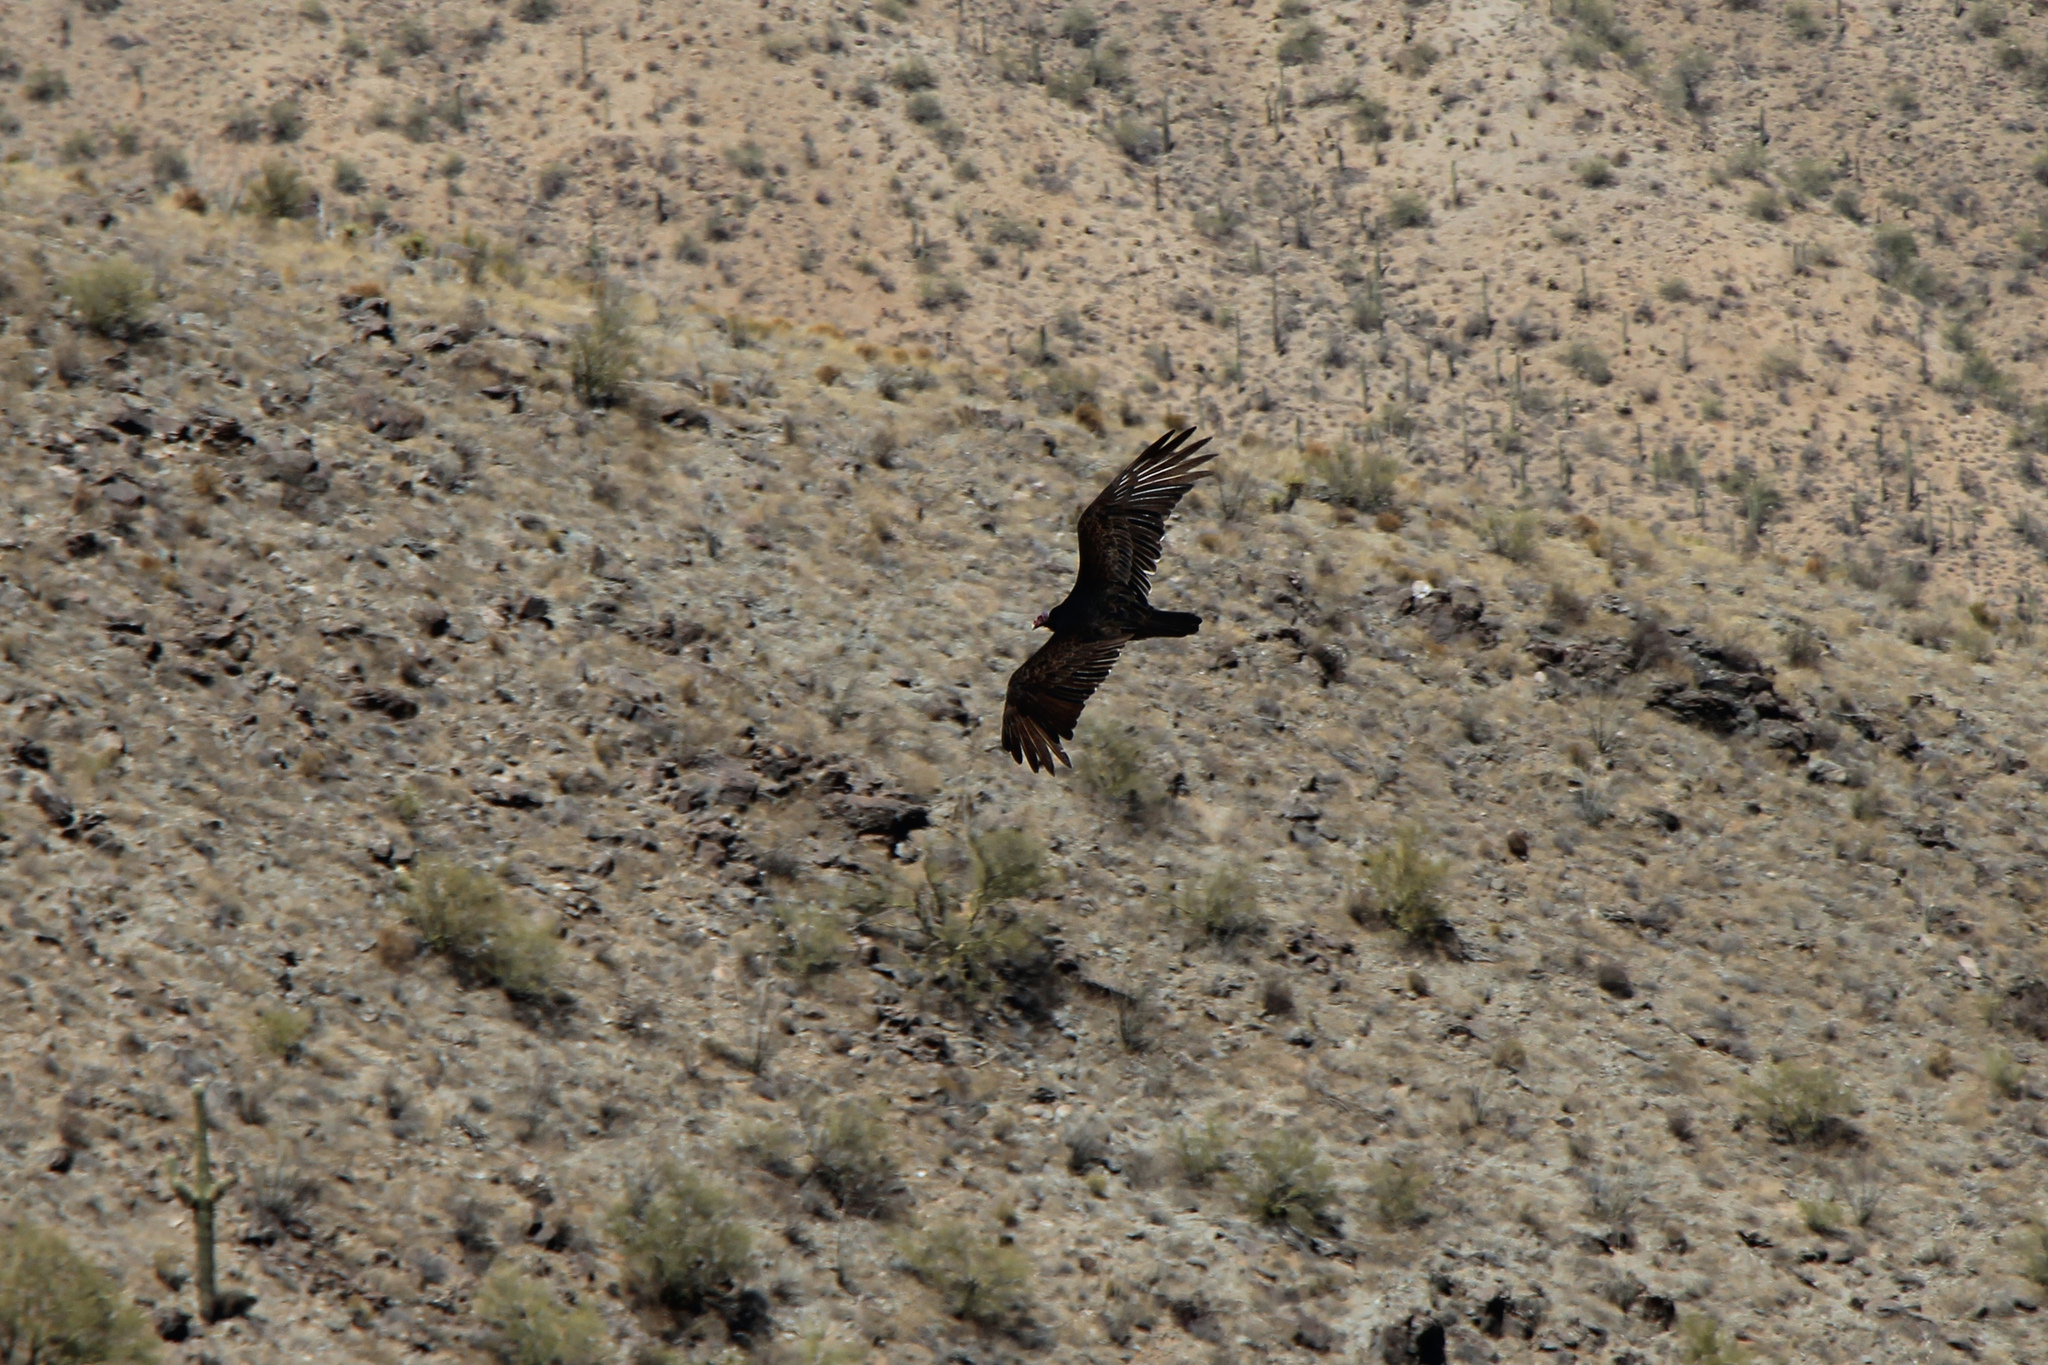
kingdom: Animalia
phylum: Chordata
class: Aves
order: Accipitriformes
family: Cathartidae
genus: Cathartes
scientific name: Cathartes aura
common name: Turkey vulture
